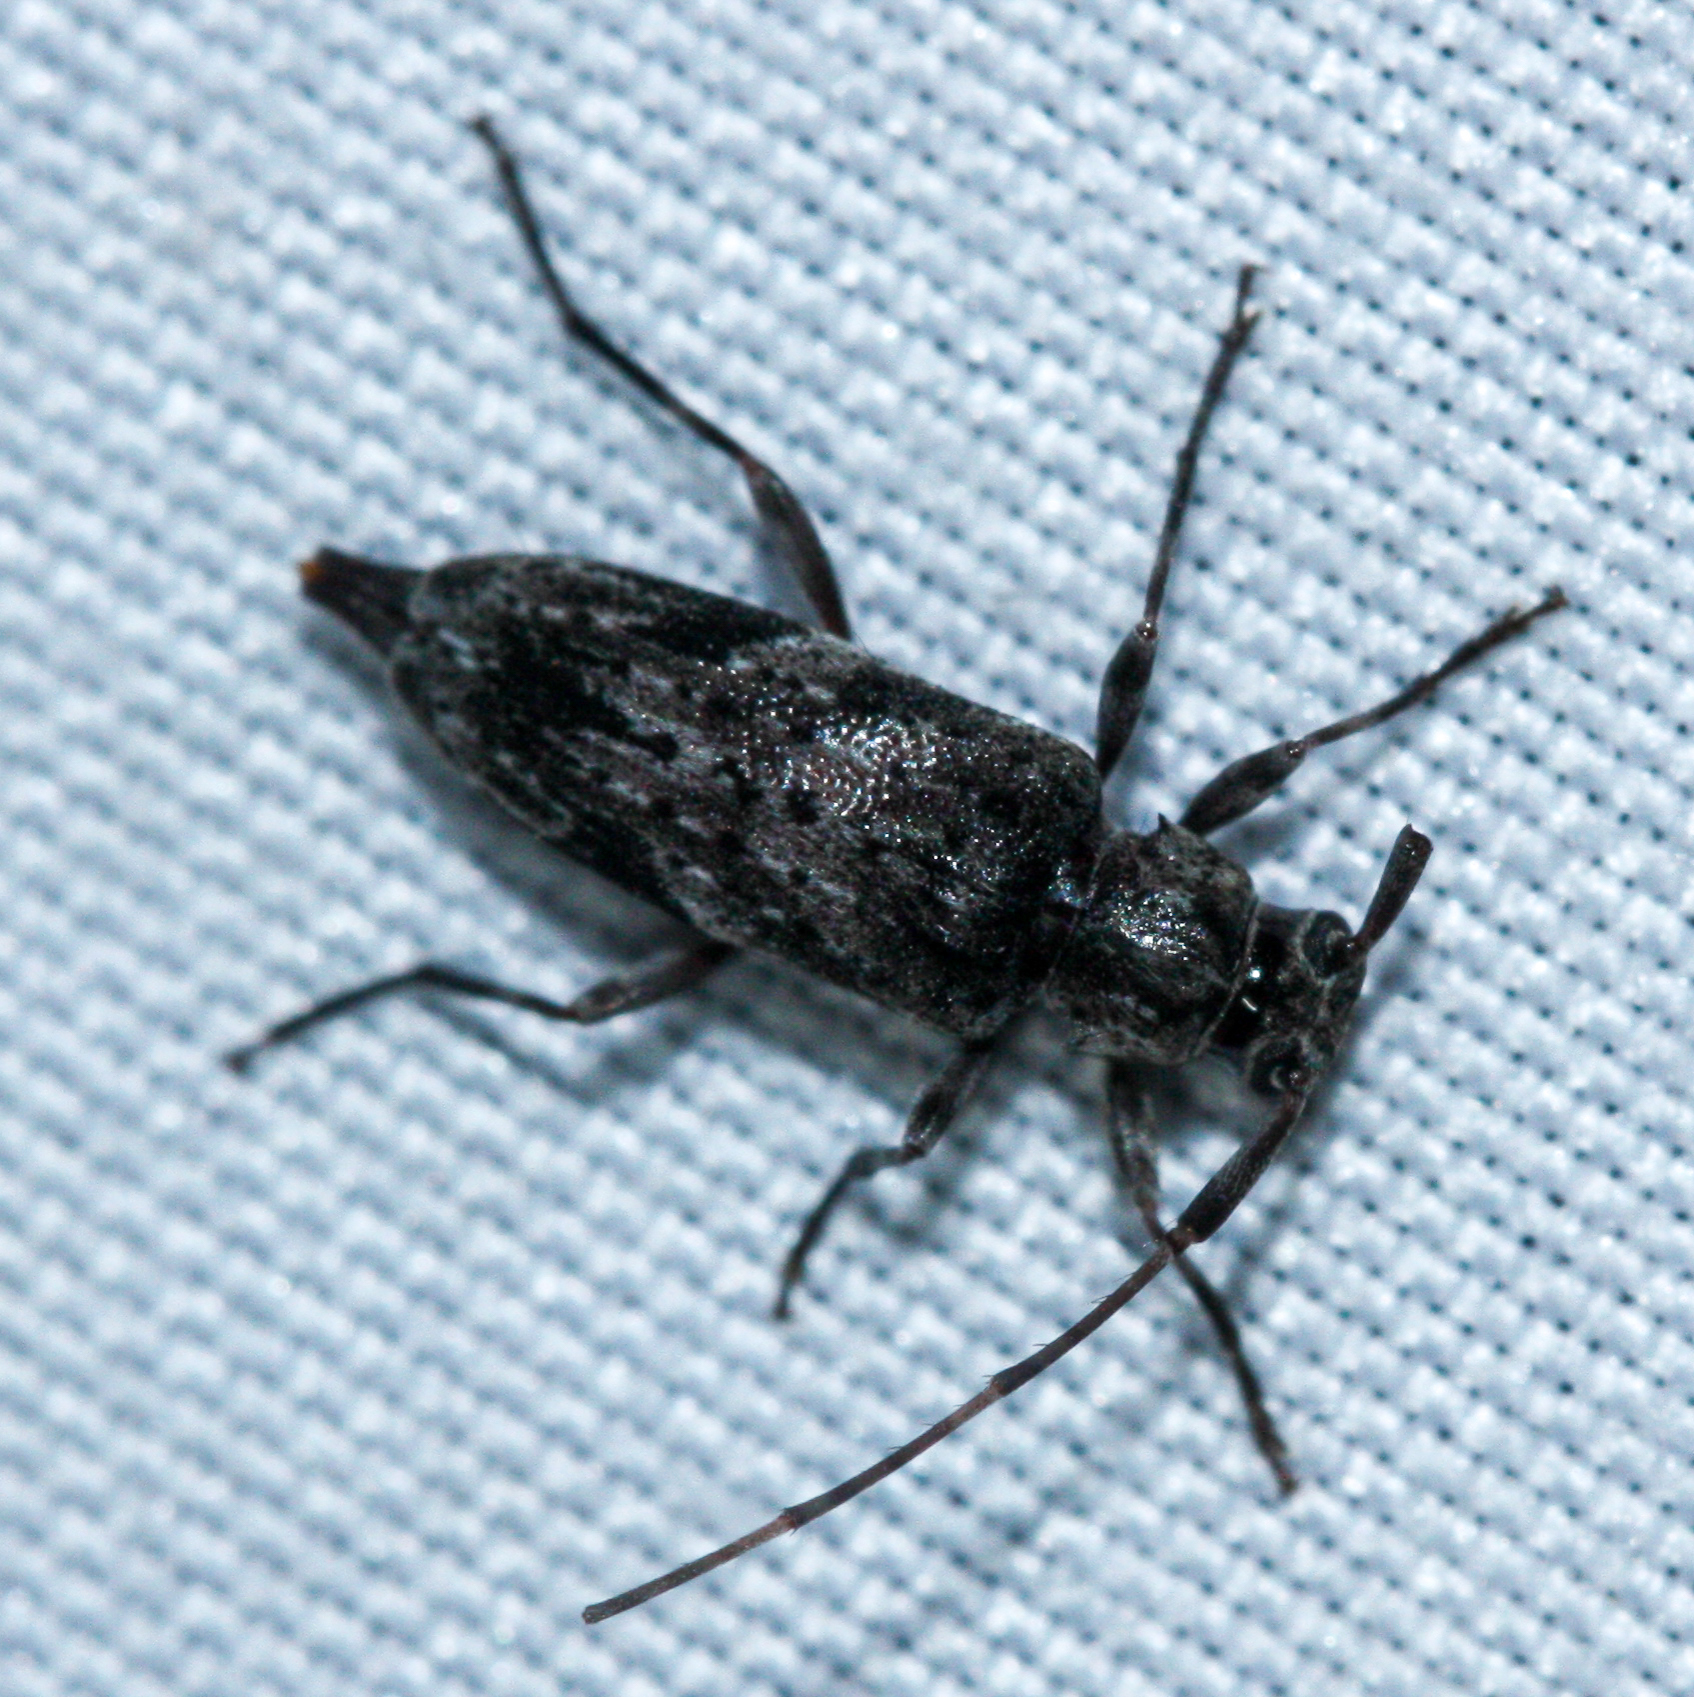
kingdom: Animalia
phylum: Arthropoda
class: Insecta
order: Coleoptera
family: Cerambycidae
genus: Eutrichillus
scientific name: Eutrichillus neomexicanus
